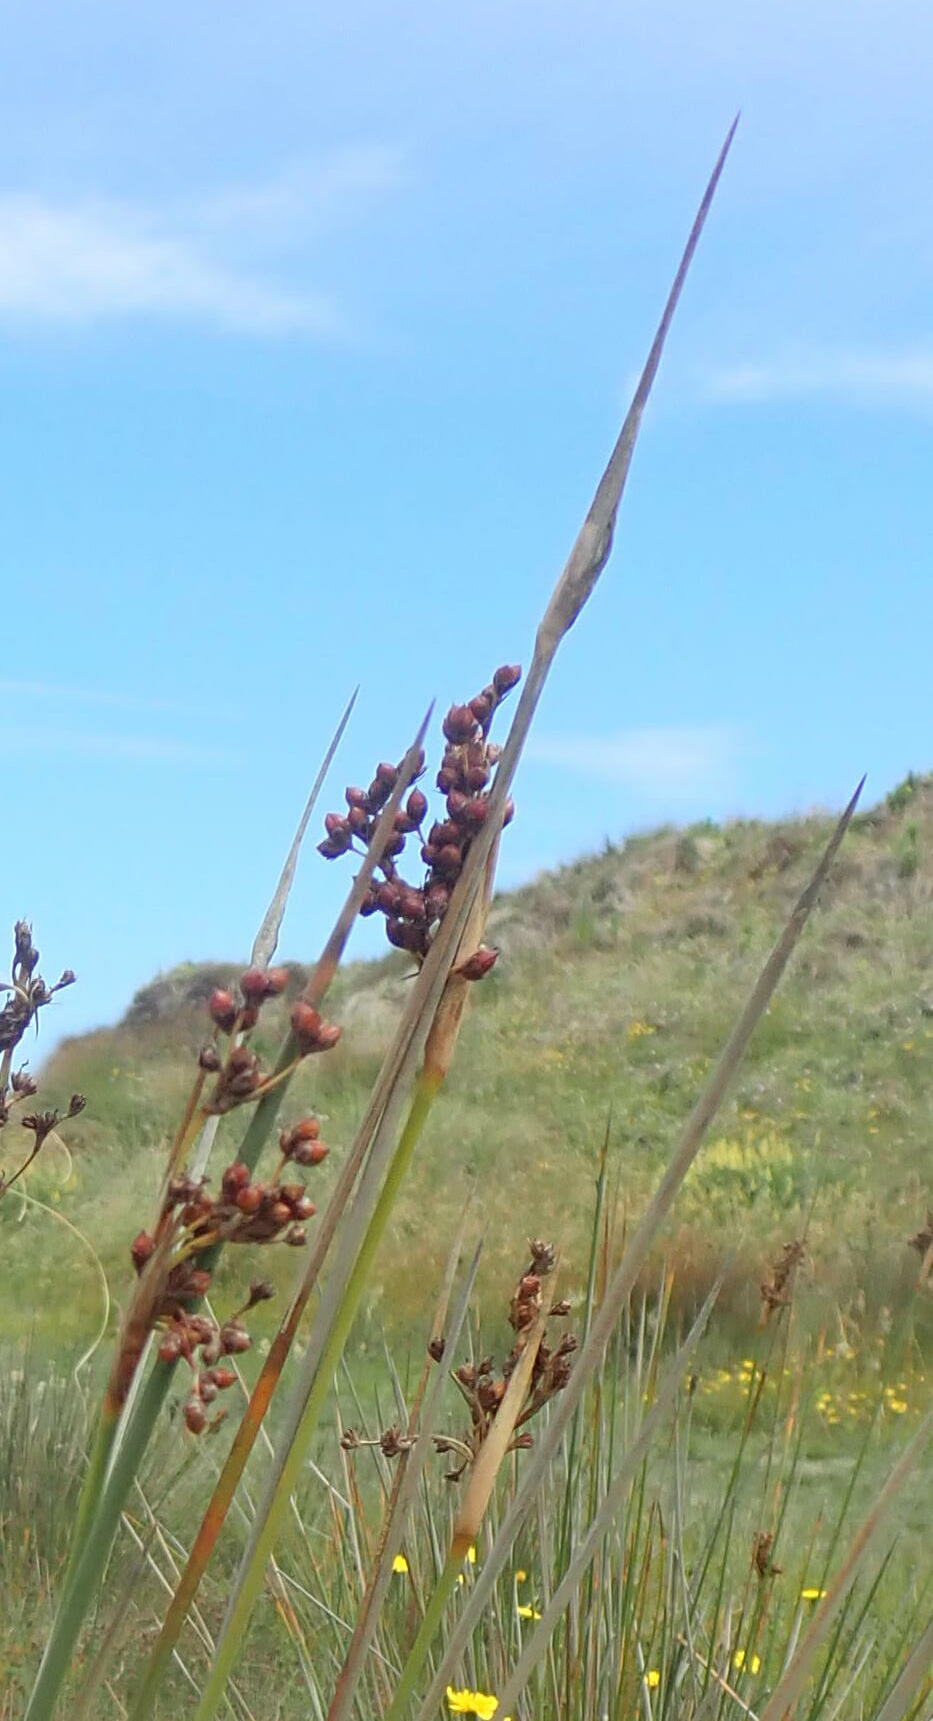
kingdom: Plantae
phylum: Tracheophyta
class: Liliopsida
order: Poales
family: Juncaceae
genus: Juncus
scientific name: Juncus acutus
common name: Sharp rush
